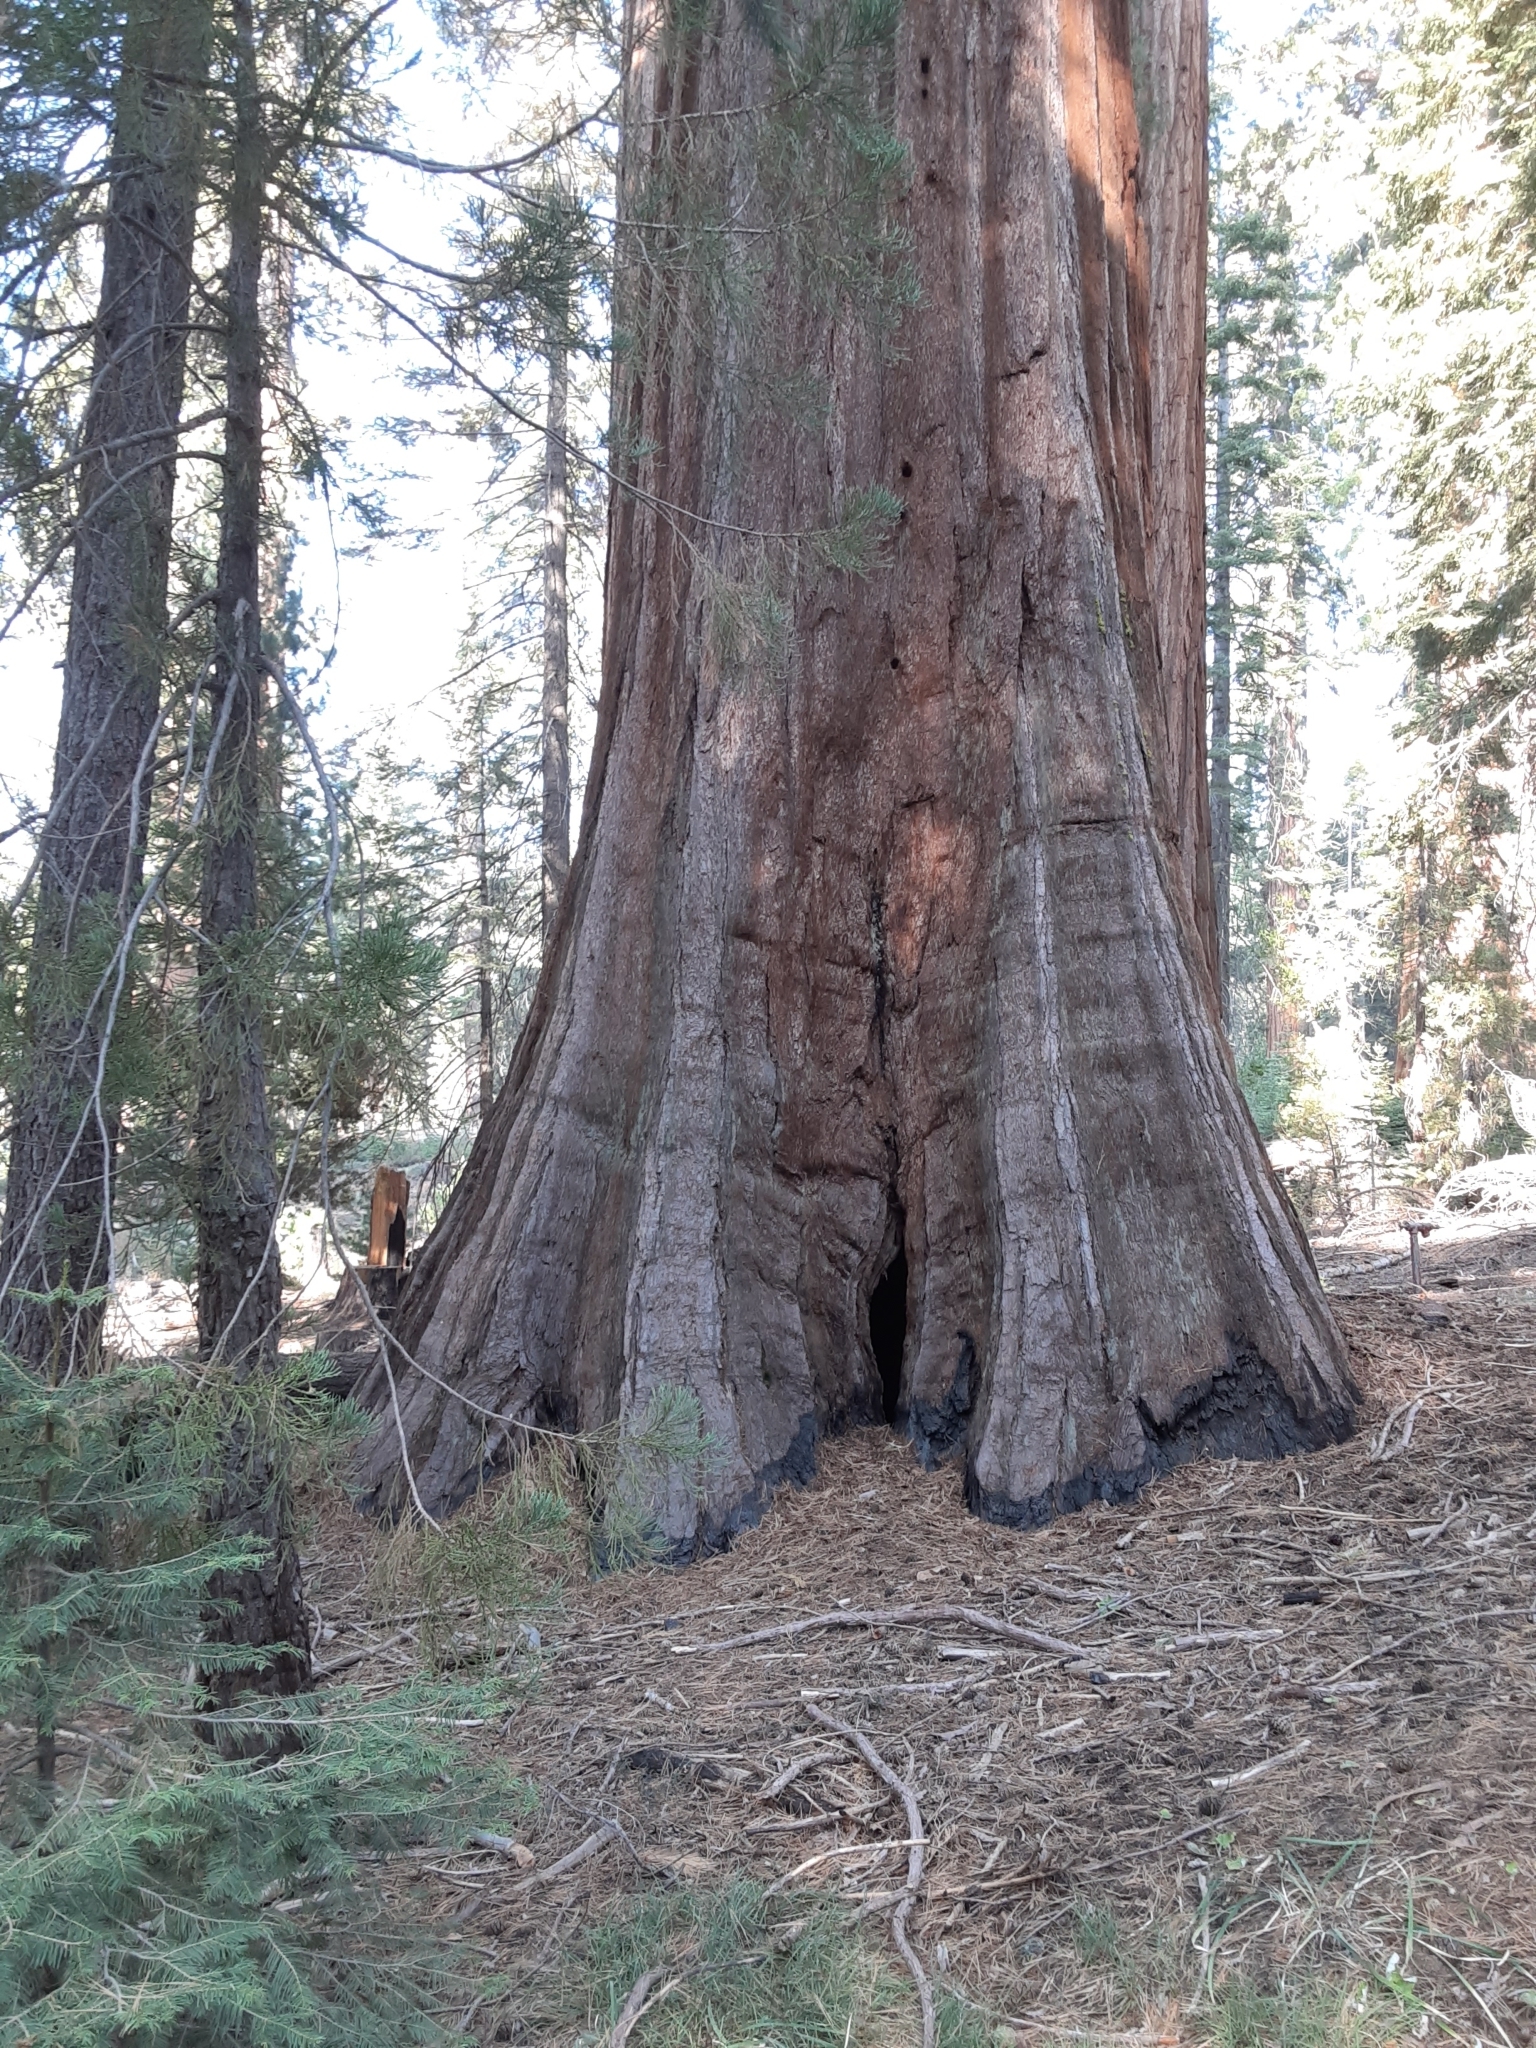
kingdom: Plantae
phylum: Tracheophyta
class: Pinopsida
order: Pinales
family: Cupressaceae
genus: Sequoiadendron
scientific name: Sequoiadendron giganteum
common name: Wellingtonia
